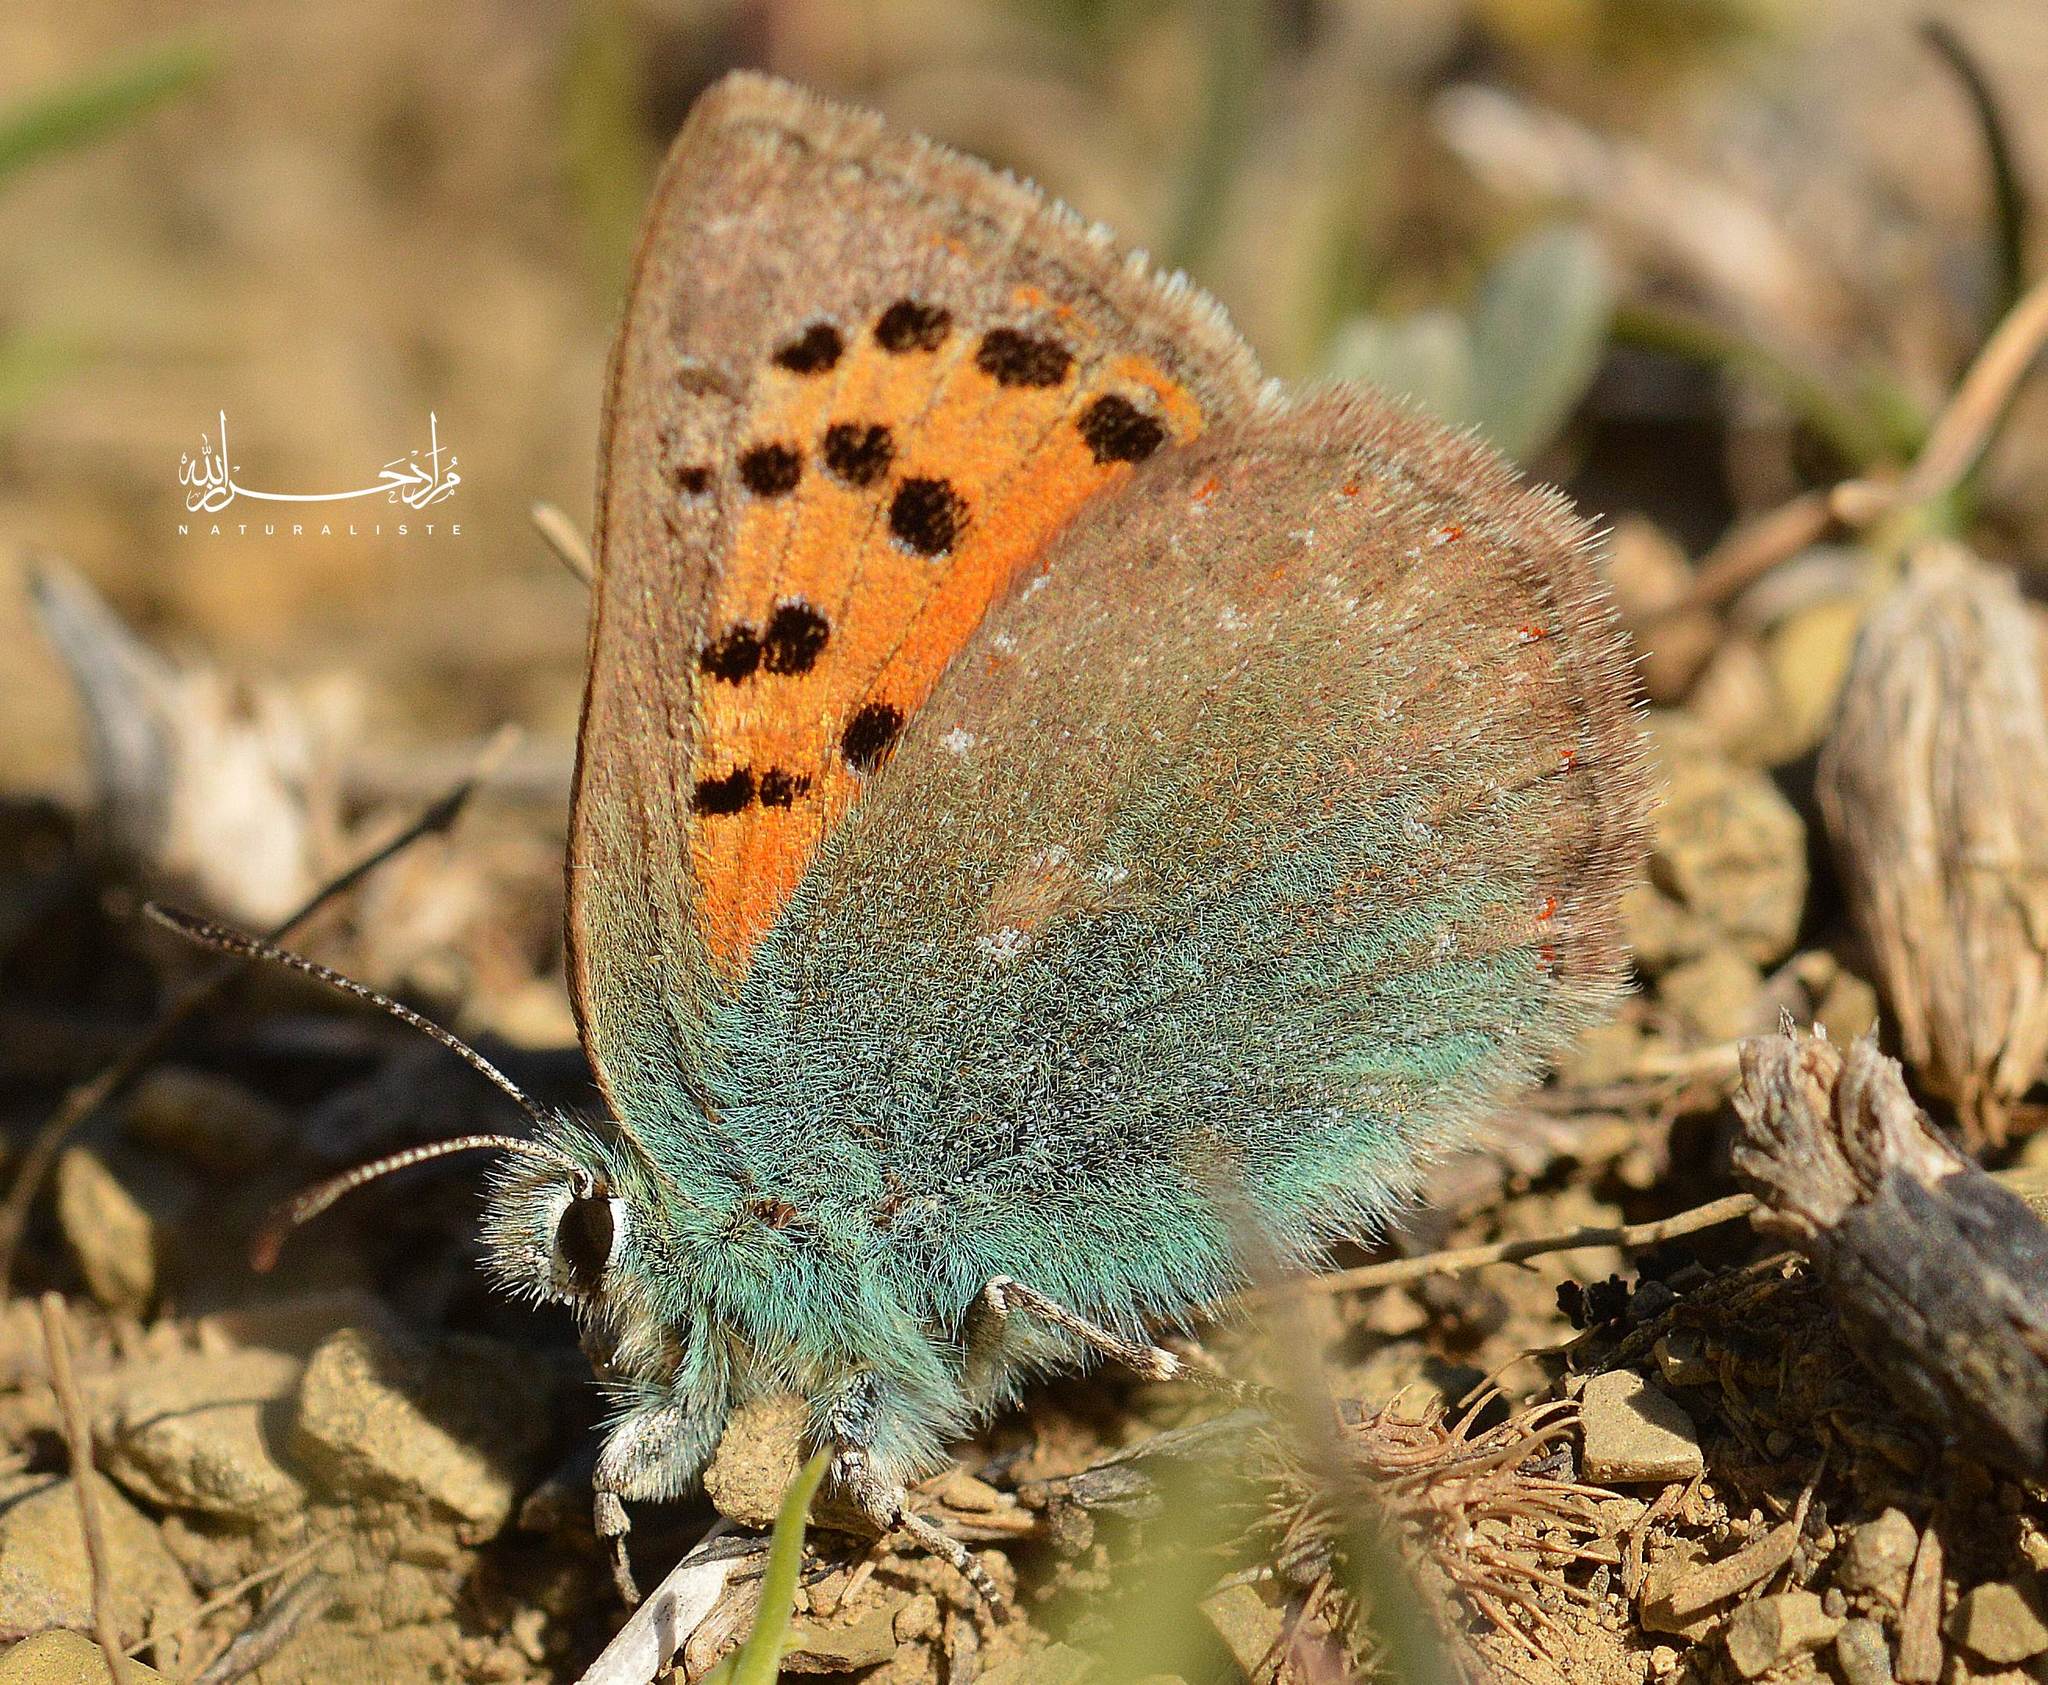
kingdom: Animalia
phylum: Arthropoda
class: Insecta
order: Lepidoptera
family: Lycaenidae
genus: Tomares
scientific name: Tomares ballus
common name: Provence hairstreak
